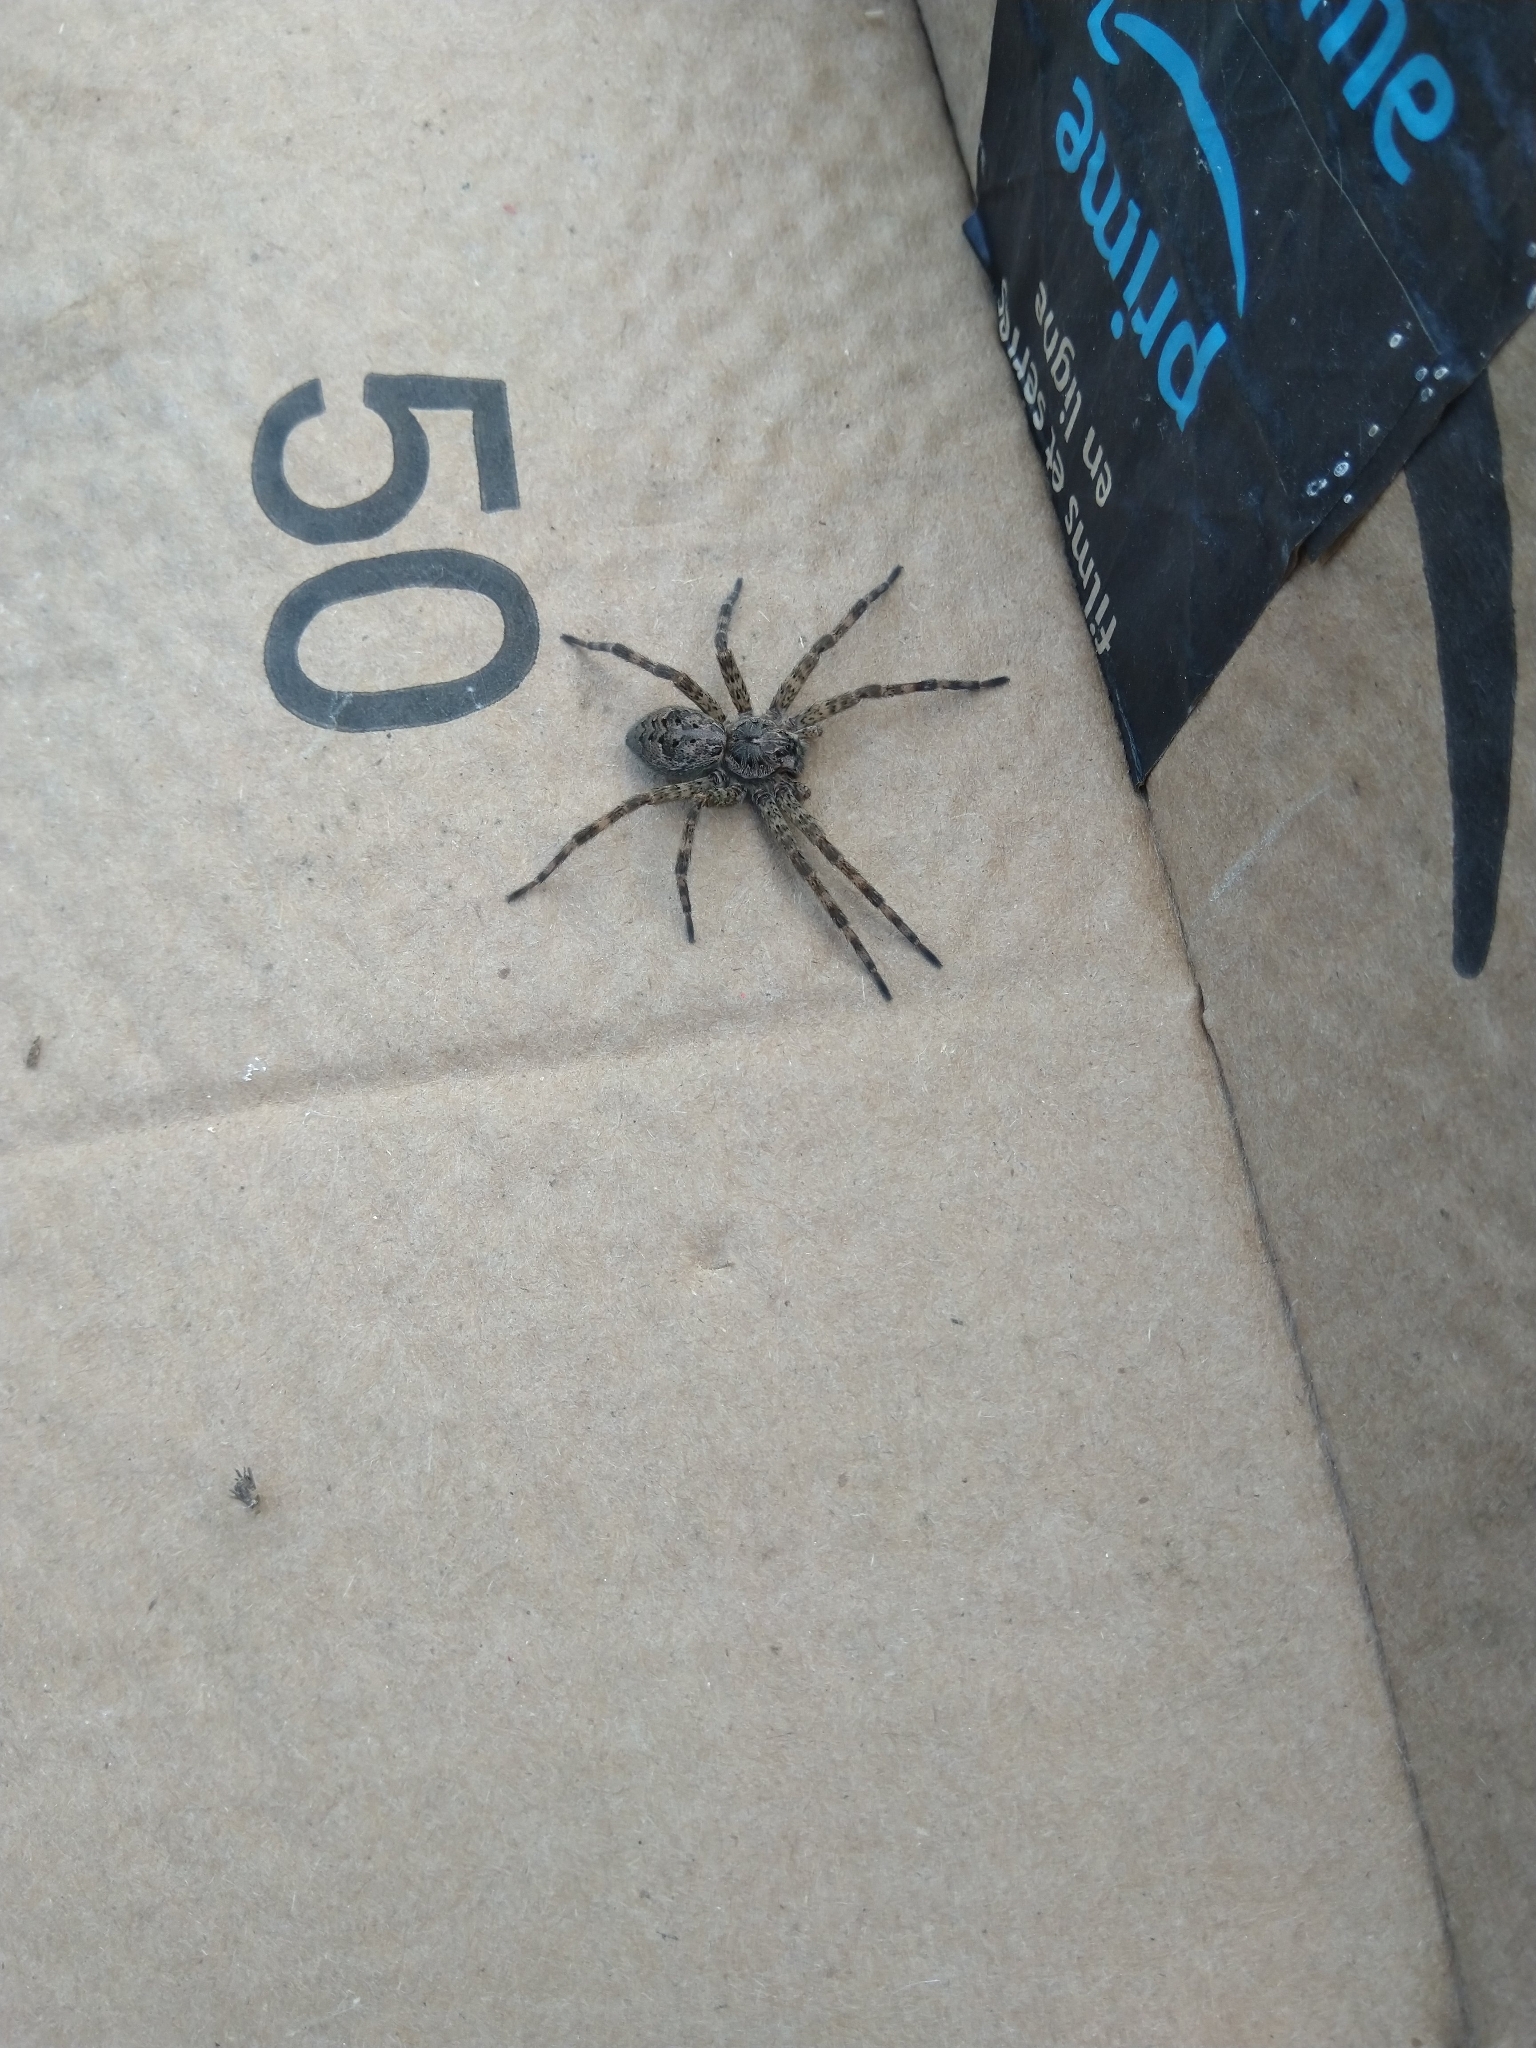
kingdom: Animalia
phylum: Arthropoda
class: Arachnida
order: Araneae
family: Pisauridae
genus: Dolomedes
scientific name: Dolomedes tenebrosus
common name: Dark fishing spider
